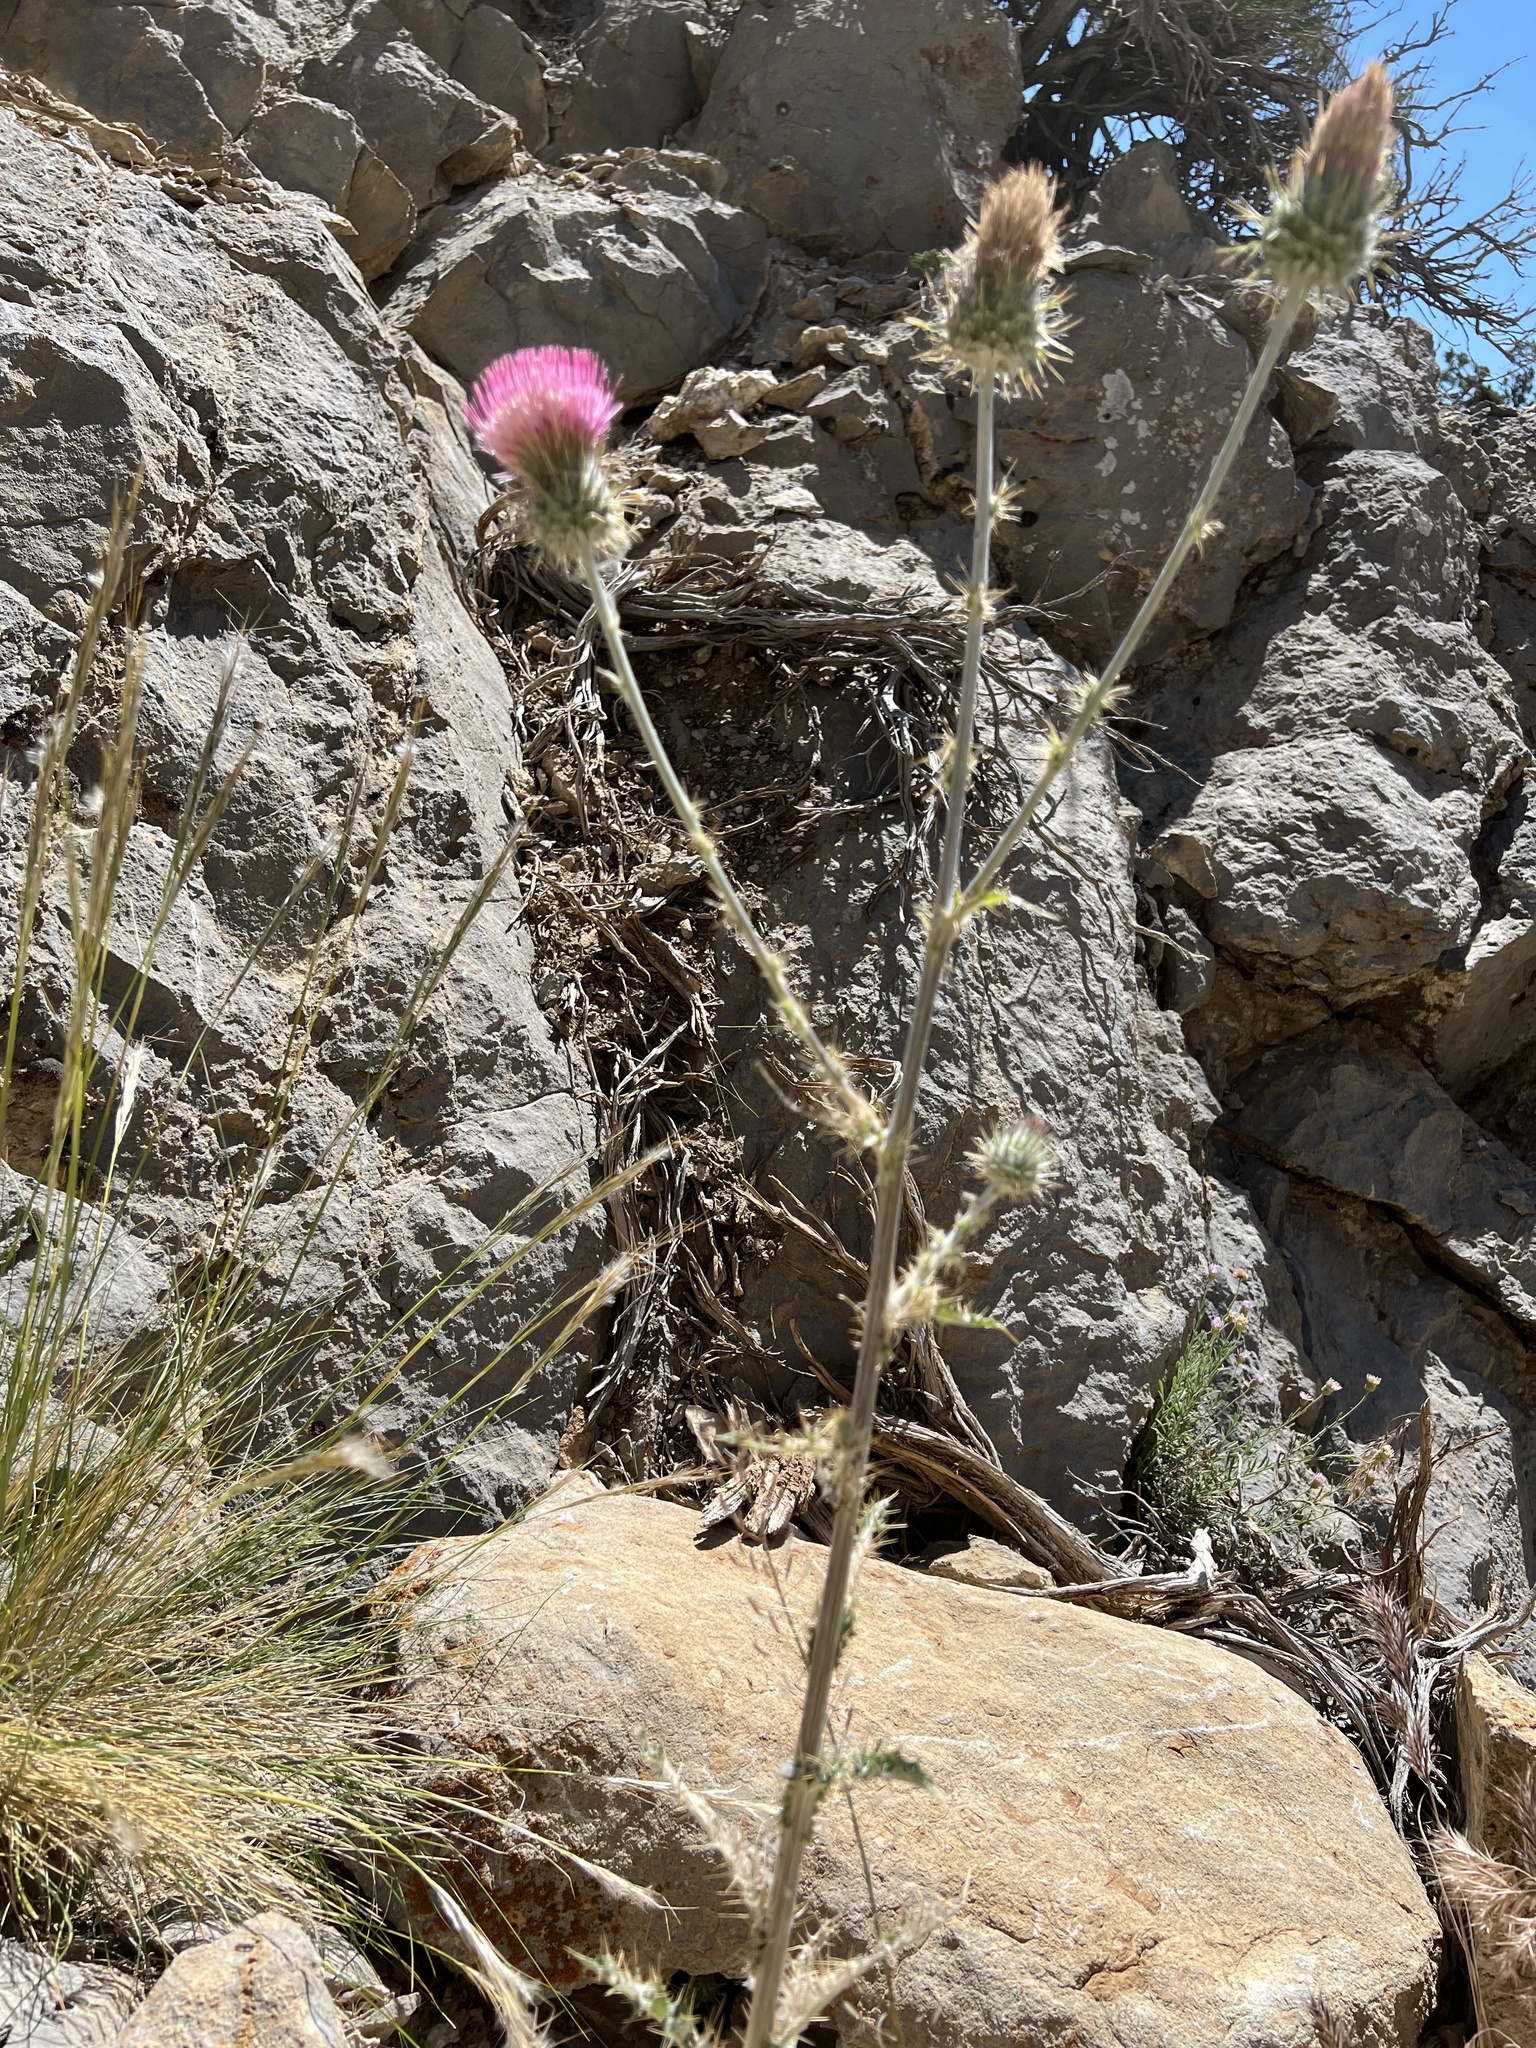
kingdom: Plantae
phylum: Tracheophyta
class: Magnoliopsida
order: Asterales
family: Asteraceae
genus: Cirsium
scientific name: Cirsium occidentale
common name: Western thistle
